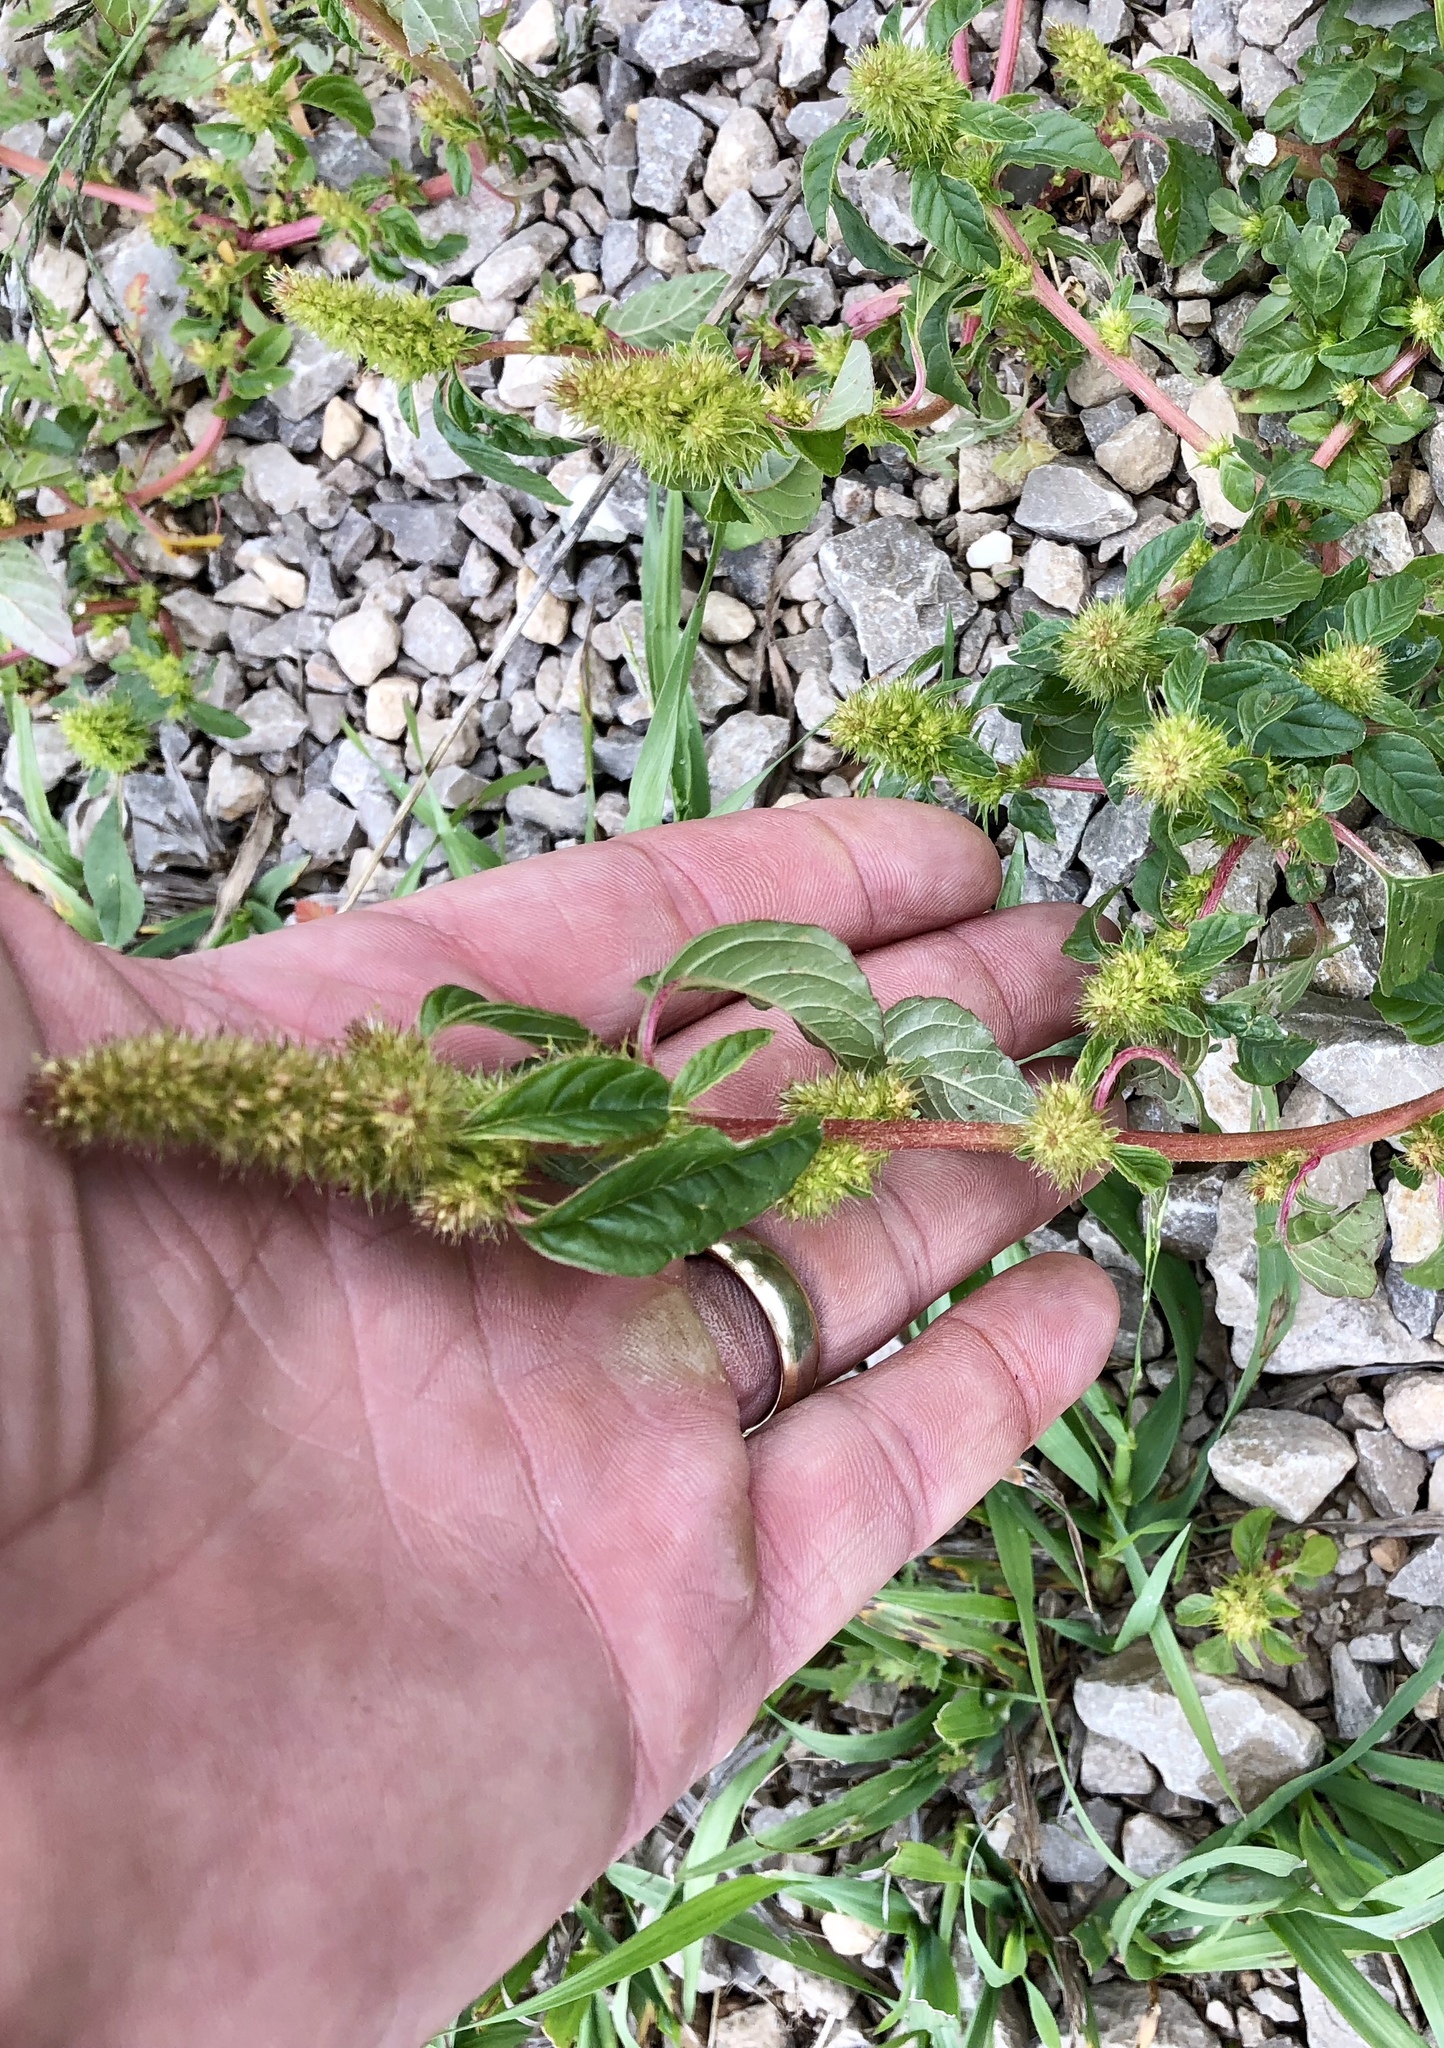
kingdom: Plantae
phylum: Tracheophyta
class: Magnoliopsida
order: Caryophyllales
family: Amaranthaceae
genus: Amaranthus
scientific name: Amaranthus retroflexus
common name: Redroot amaranth
